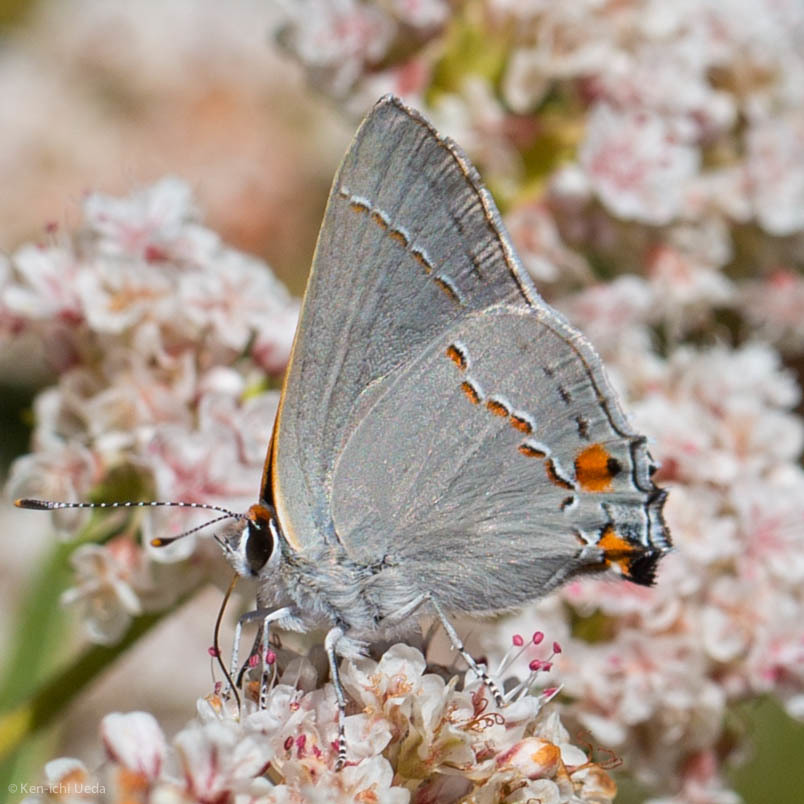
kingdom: Animalia
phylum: Arthropoda
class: Insecta
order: Lepidoptera
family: Lycaenidae
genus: Strymon
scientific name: Strymon melinus
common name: Gray hairstreak
